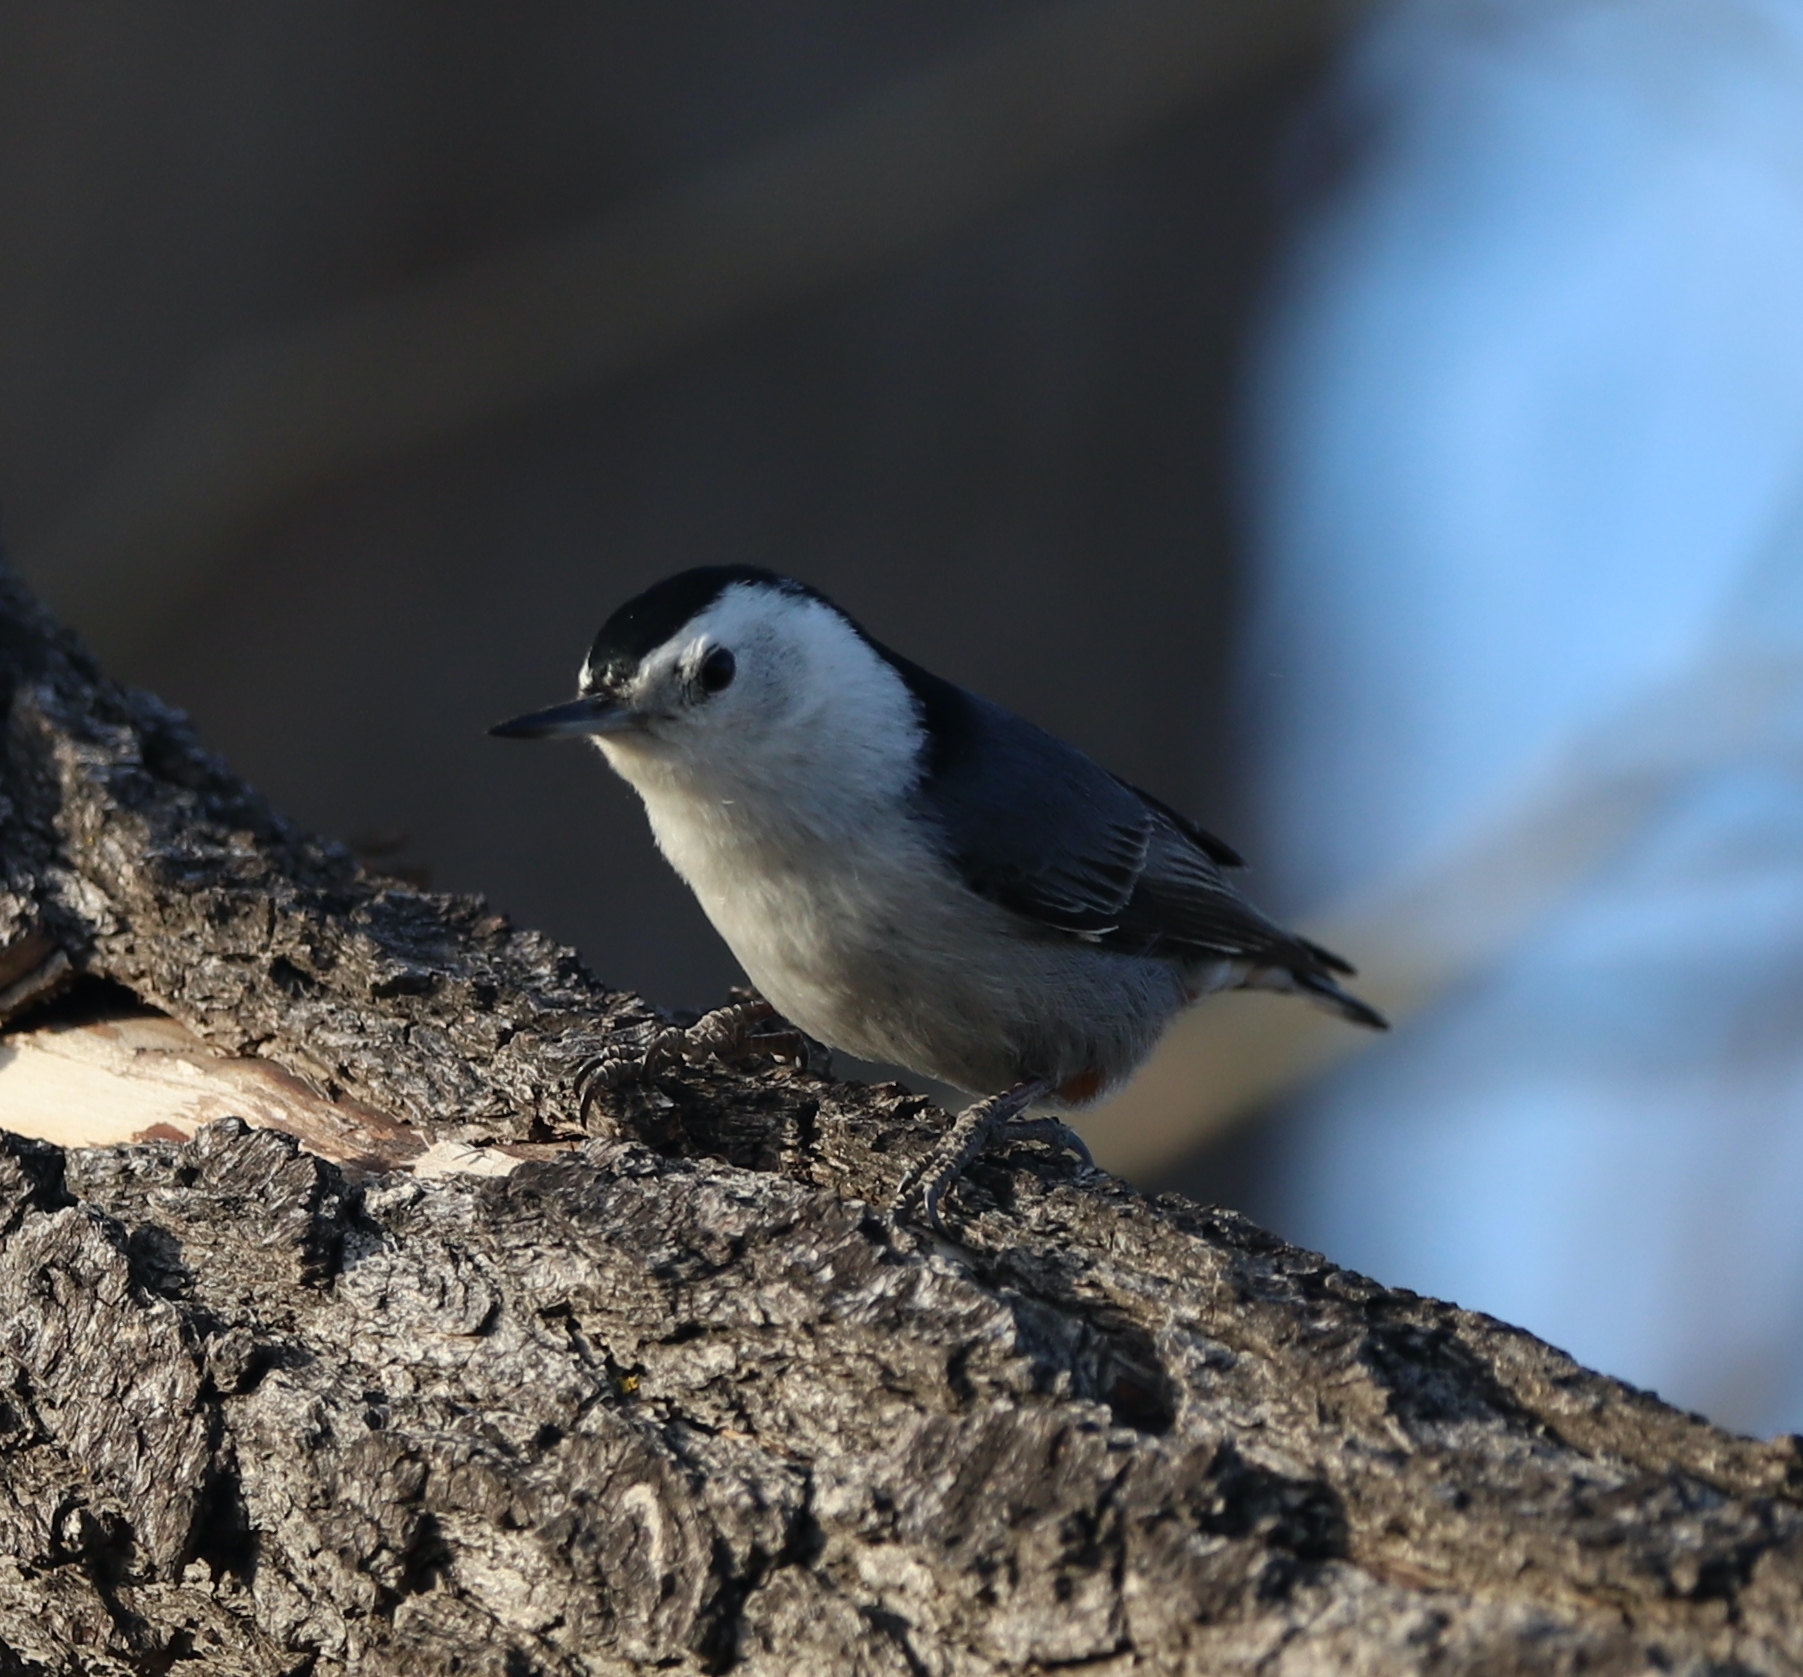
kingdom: Animalia
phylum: Chordata
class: Aves
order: Passeriformes
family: Sittidae
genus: Sitta
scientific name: Sitta carolinensis
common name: White-breasted nuthatch
